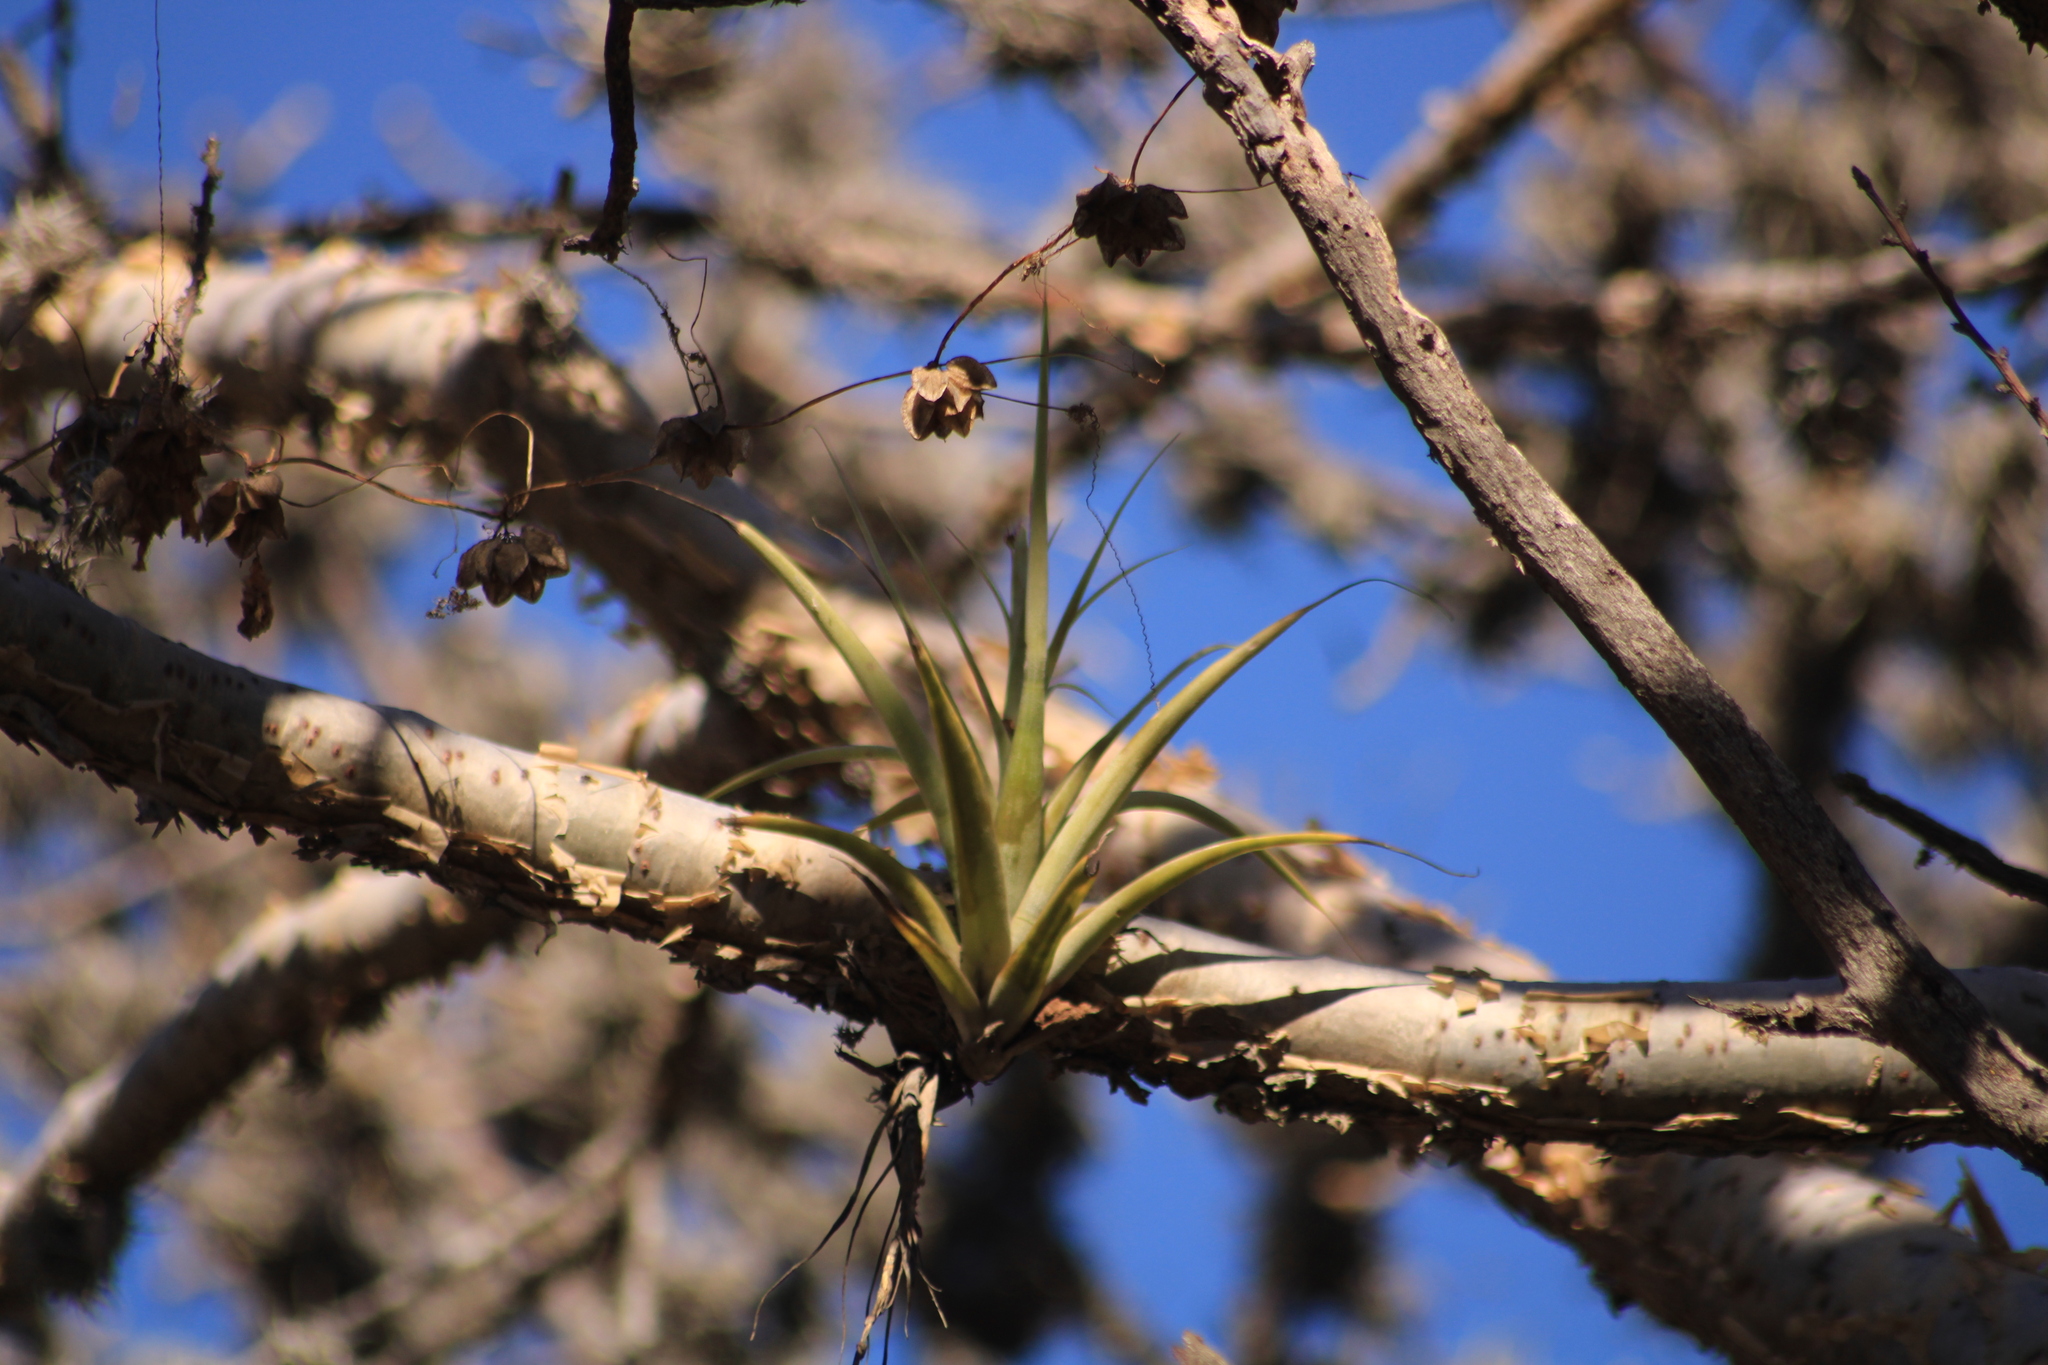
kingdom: Plantae
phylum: Tracheophyta
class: Liliopsida
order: Poales
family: Bromeliaceae
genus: Tillandsia
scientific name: Tillandsia achyrostachys
